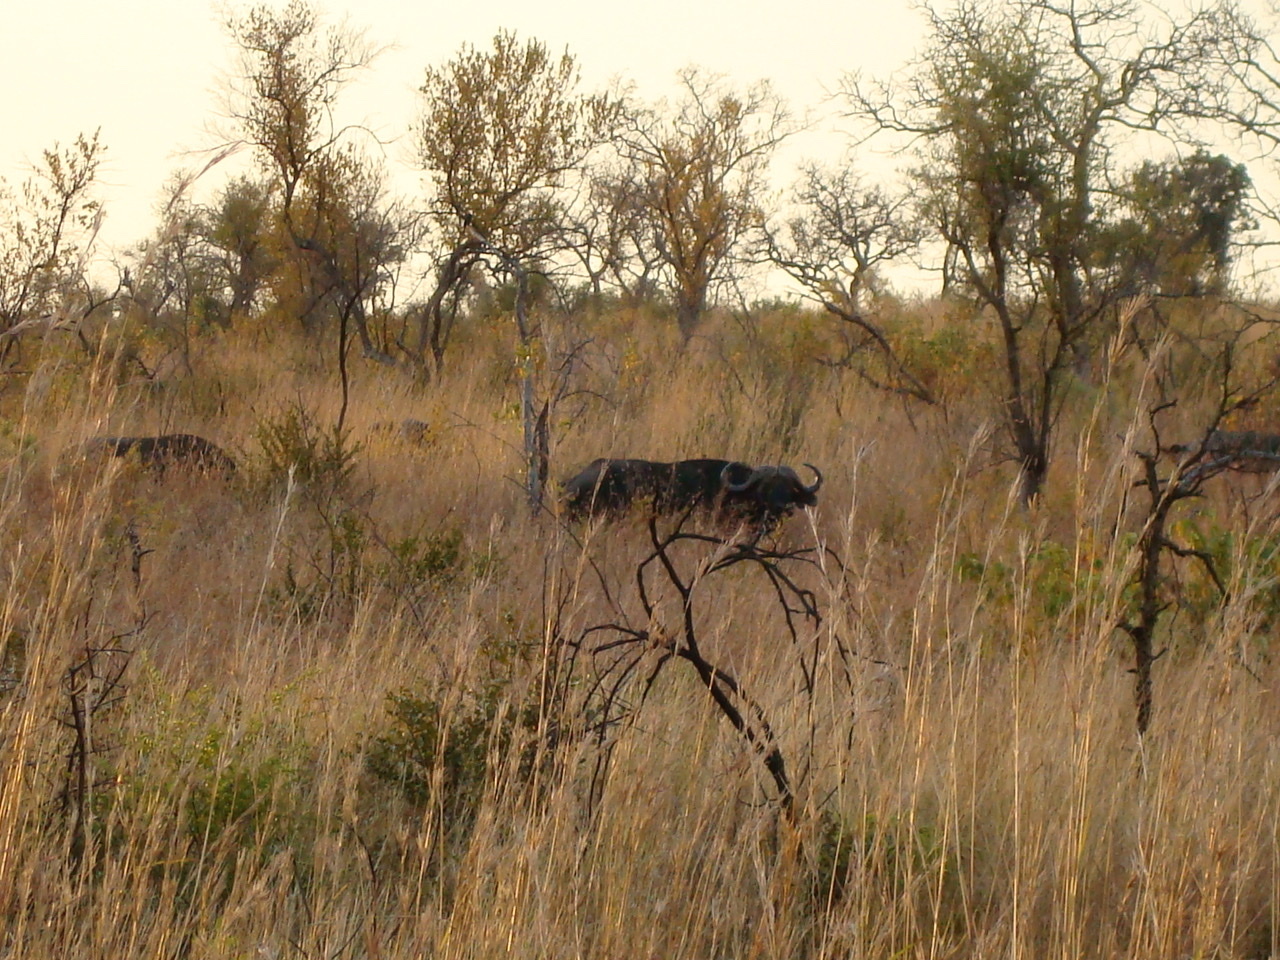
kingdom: Animalia
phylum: Chordata
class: Mammalia
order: Artiodactyla
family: Bovidae
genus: Syncerus
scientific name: Syncerus caffer
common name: African buffalo
